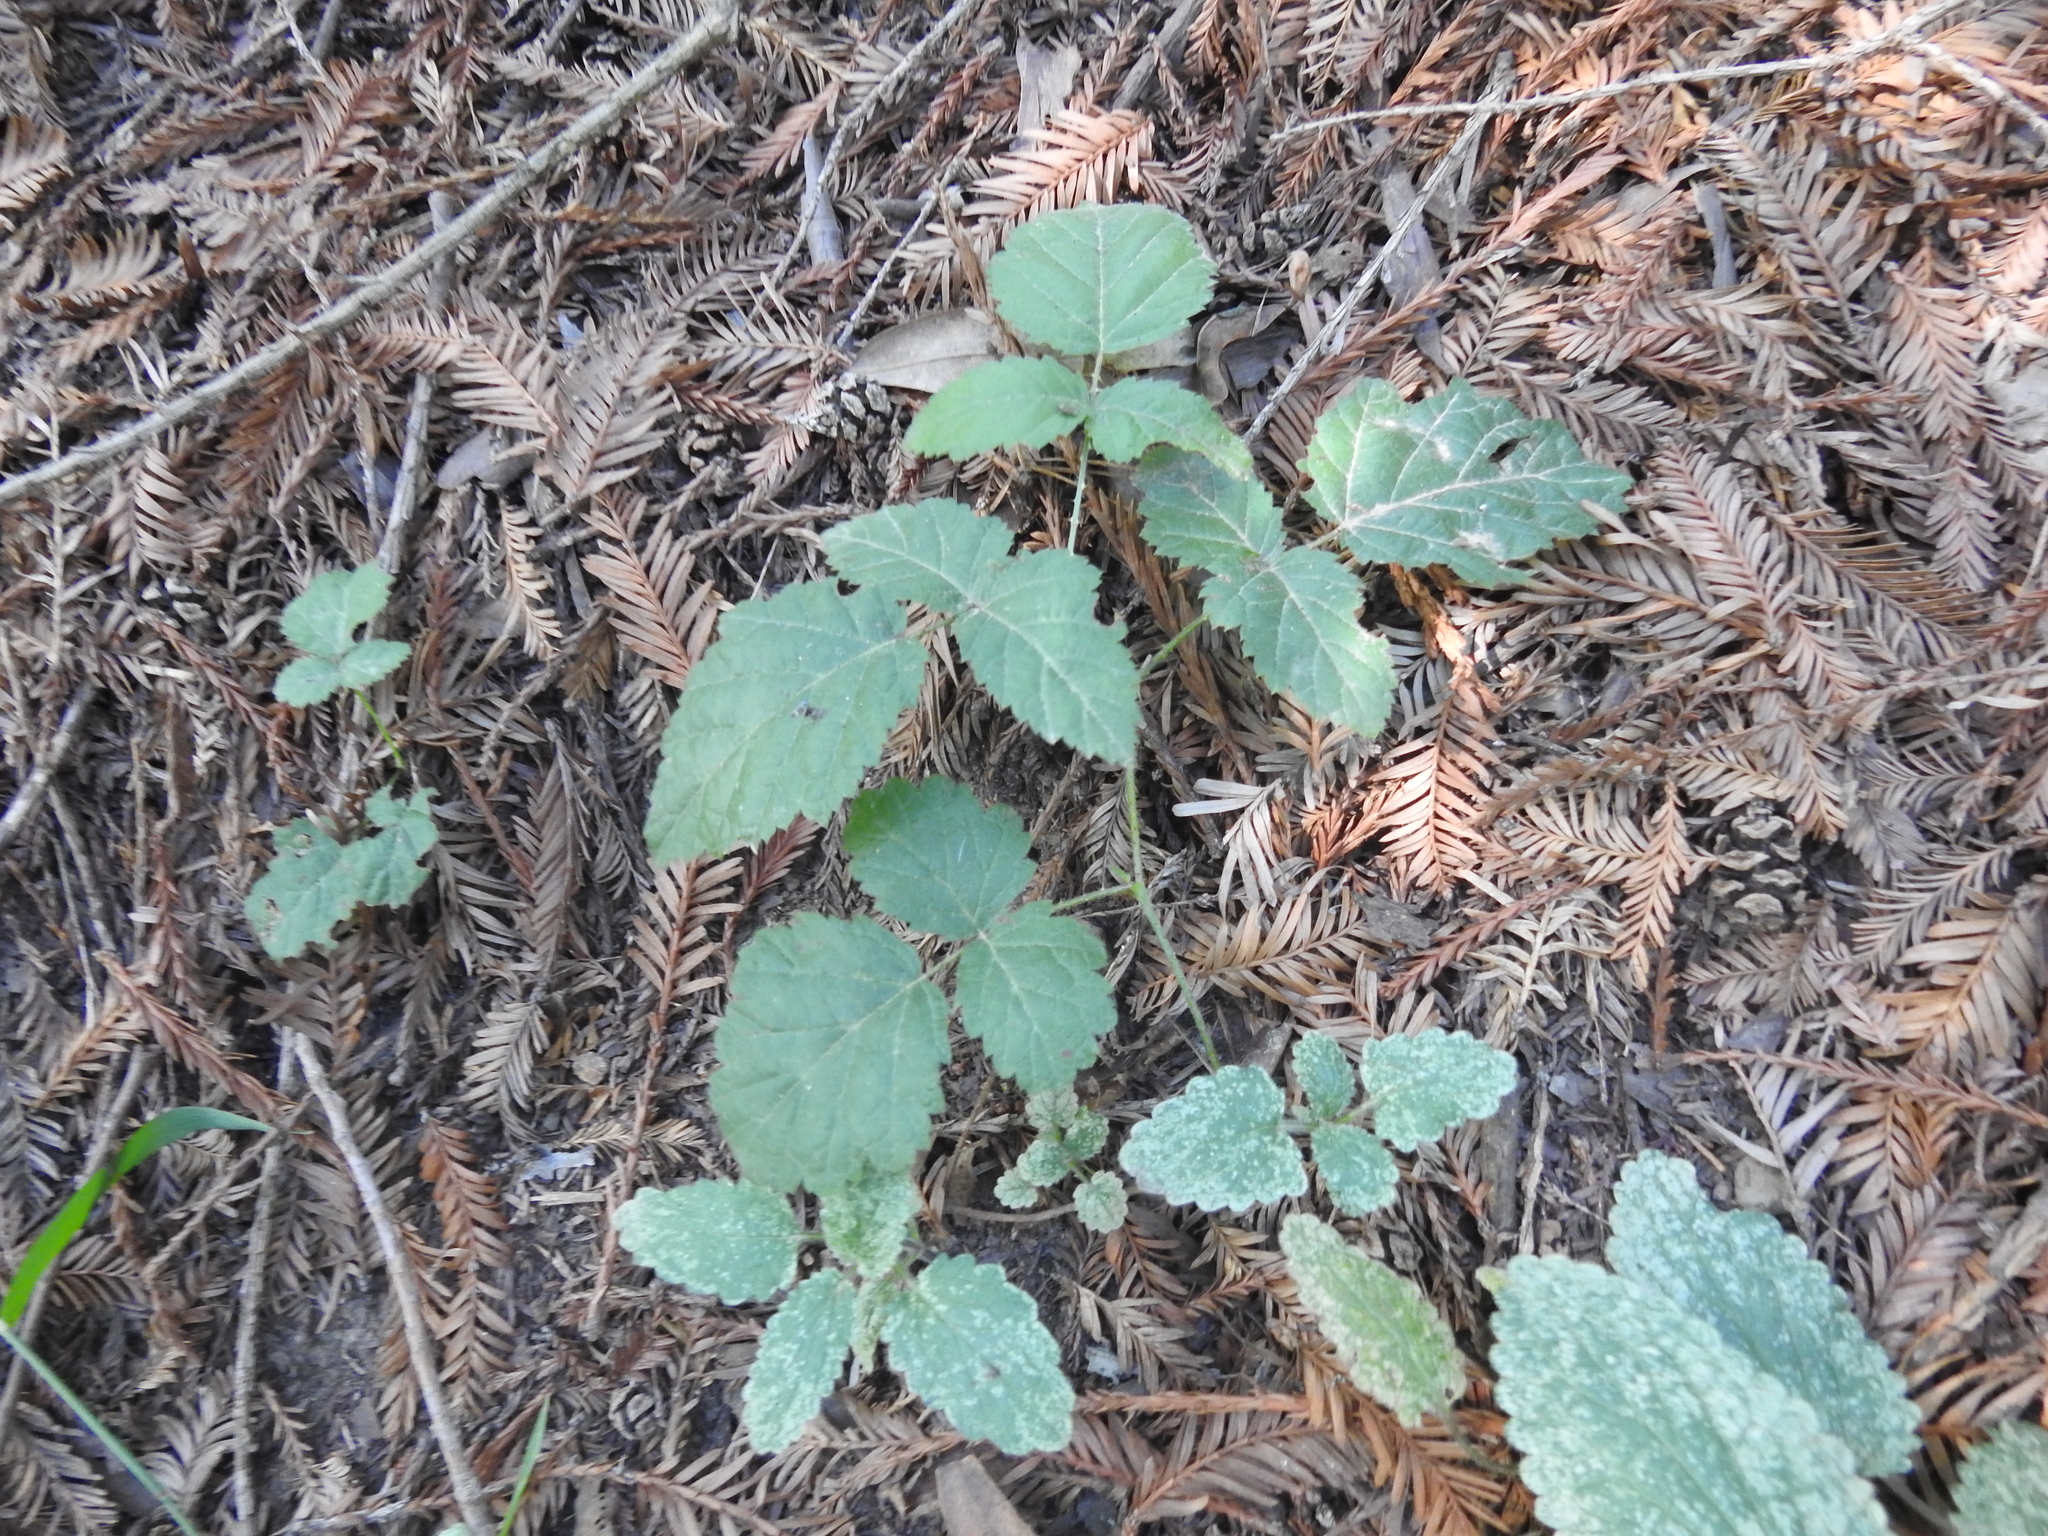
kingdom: Plantae
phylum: Tracheophyta
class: Magnoliopsida
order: Rosales
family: Rosaceae
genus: Rubus
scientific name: Rubus ursinus
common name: Pacific blackberry
